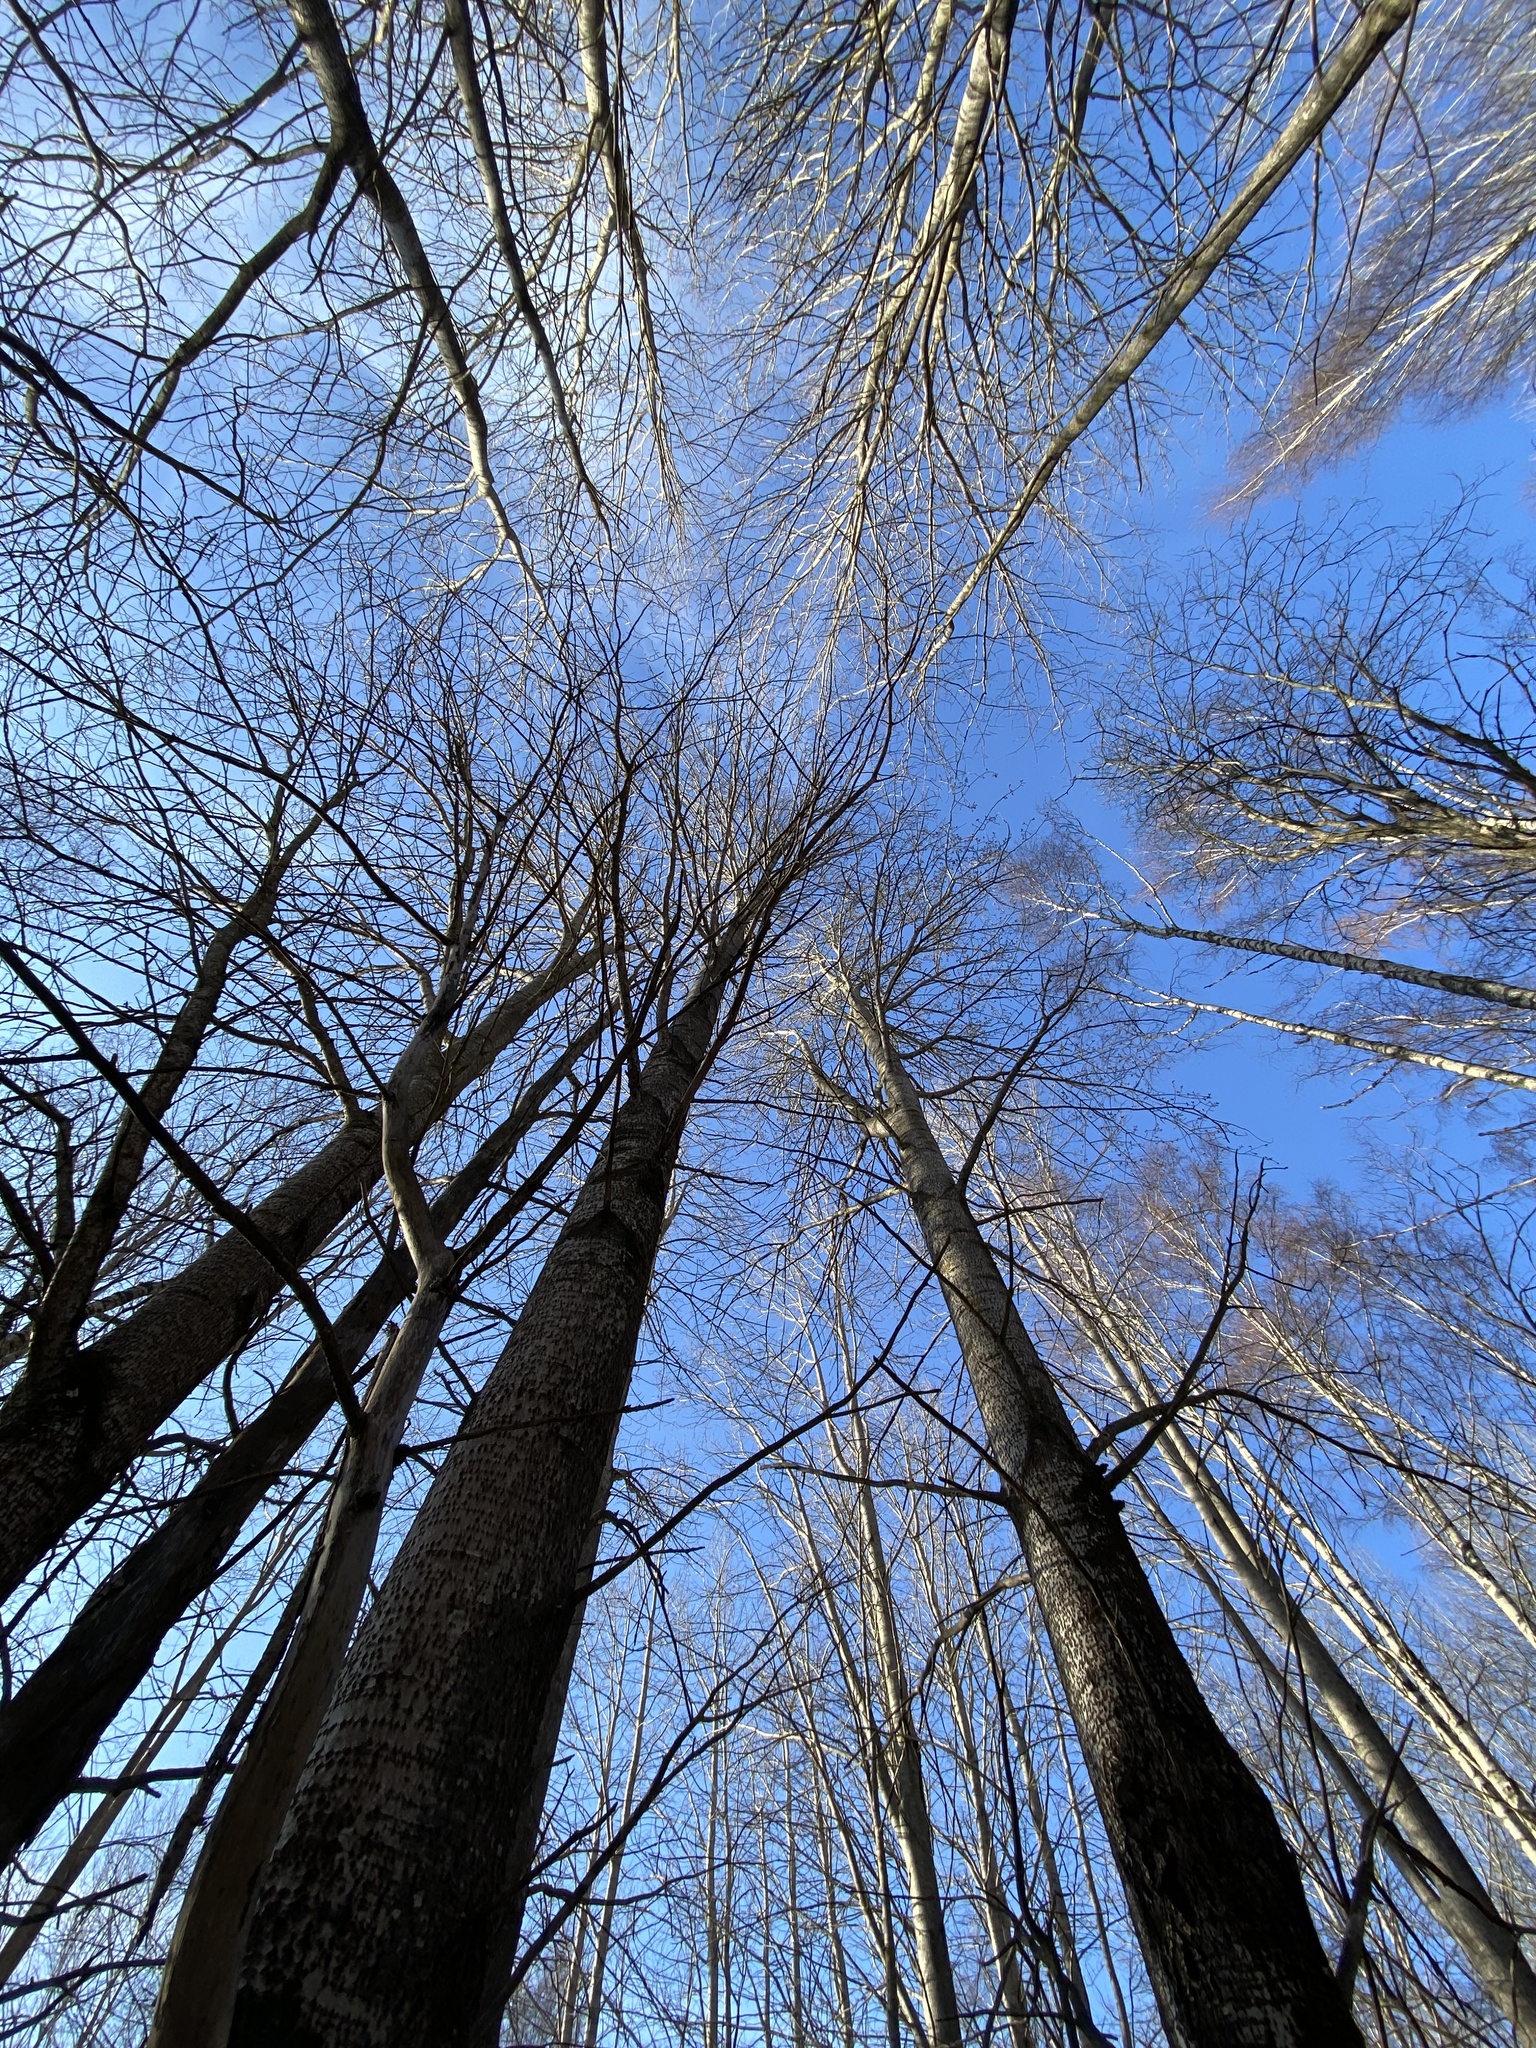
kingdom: Plantae
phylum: Tracheophyta
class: Magnoliopsida
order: Malpighiales
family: Salicaceae
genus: Populus
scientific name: Populus tremula
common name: European aspen
